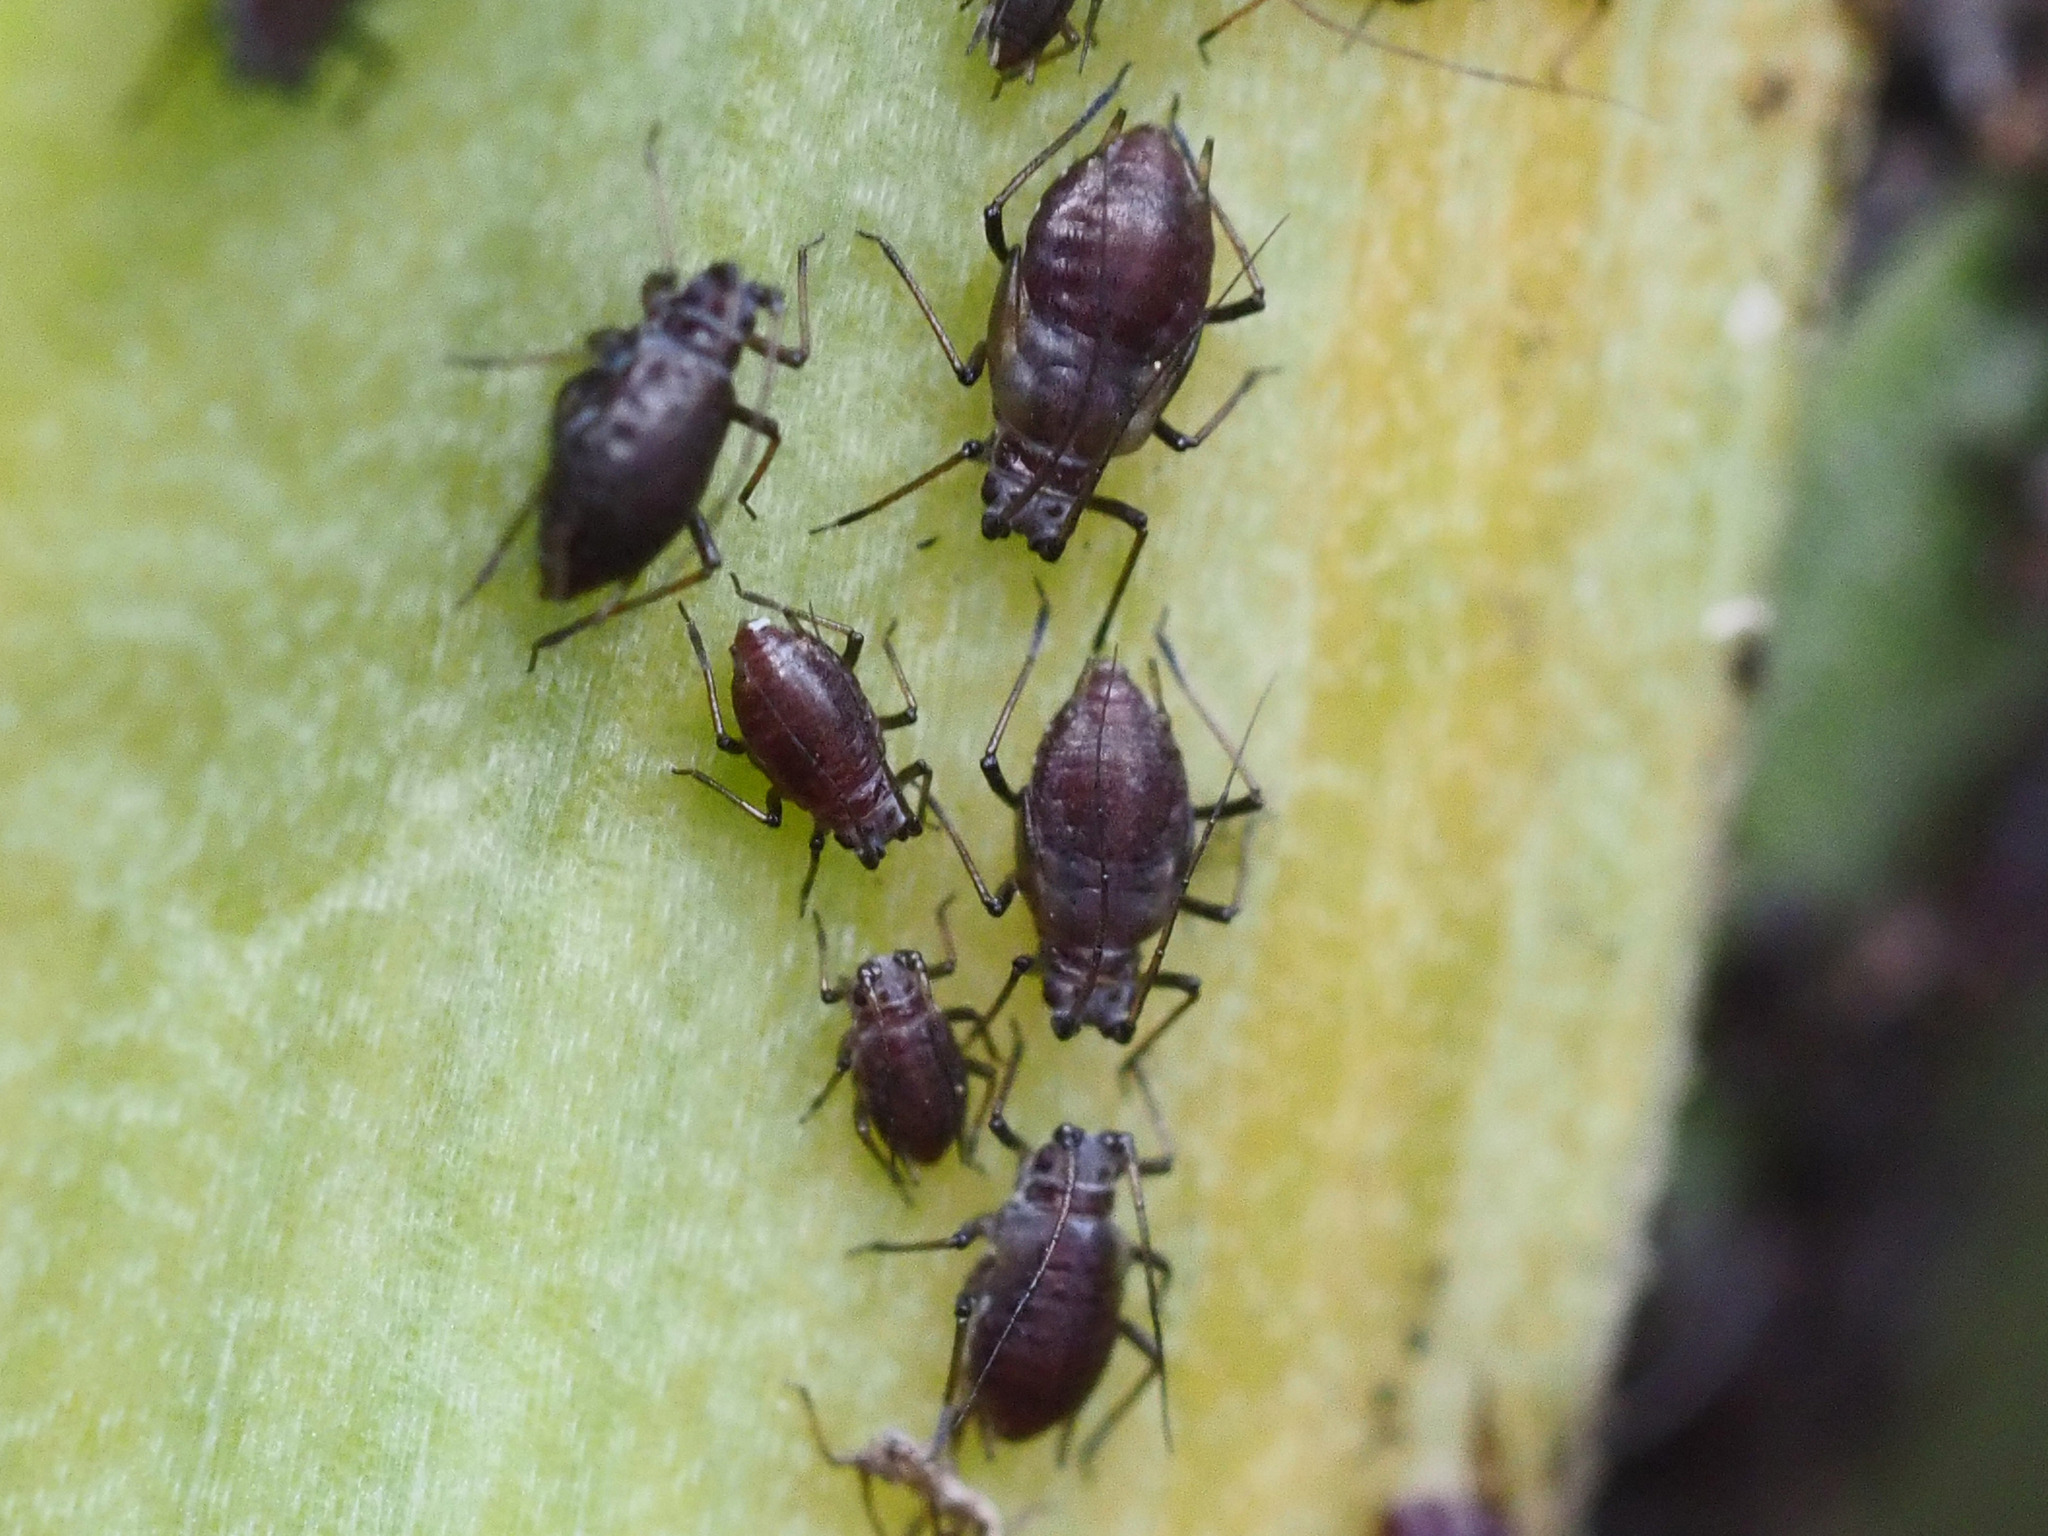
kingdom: Animalia
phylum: Arthropoda
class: Insecta
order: Hemiptera
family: Aphididae
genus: Neotoxoptera
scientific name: Neotoxoptera formosana
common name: Onion aphid
